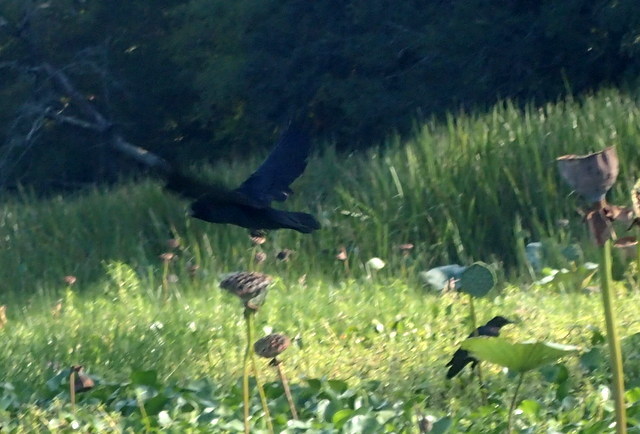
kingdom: Animalia
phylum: Chordata
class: Aves
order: Passeriformes
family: Icteridae
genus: Quiscalus
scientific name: Quiscalus major
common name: Boat-tailed grackle
